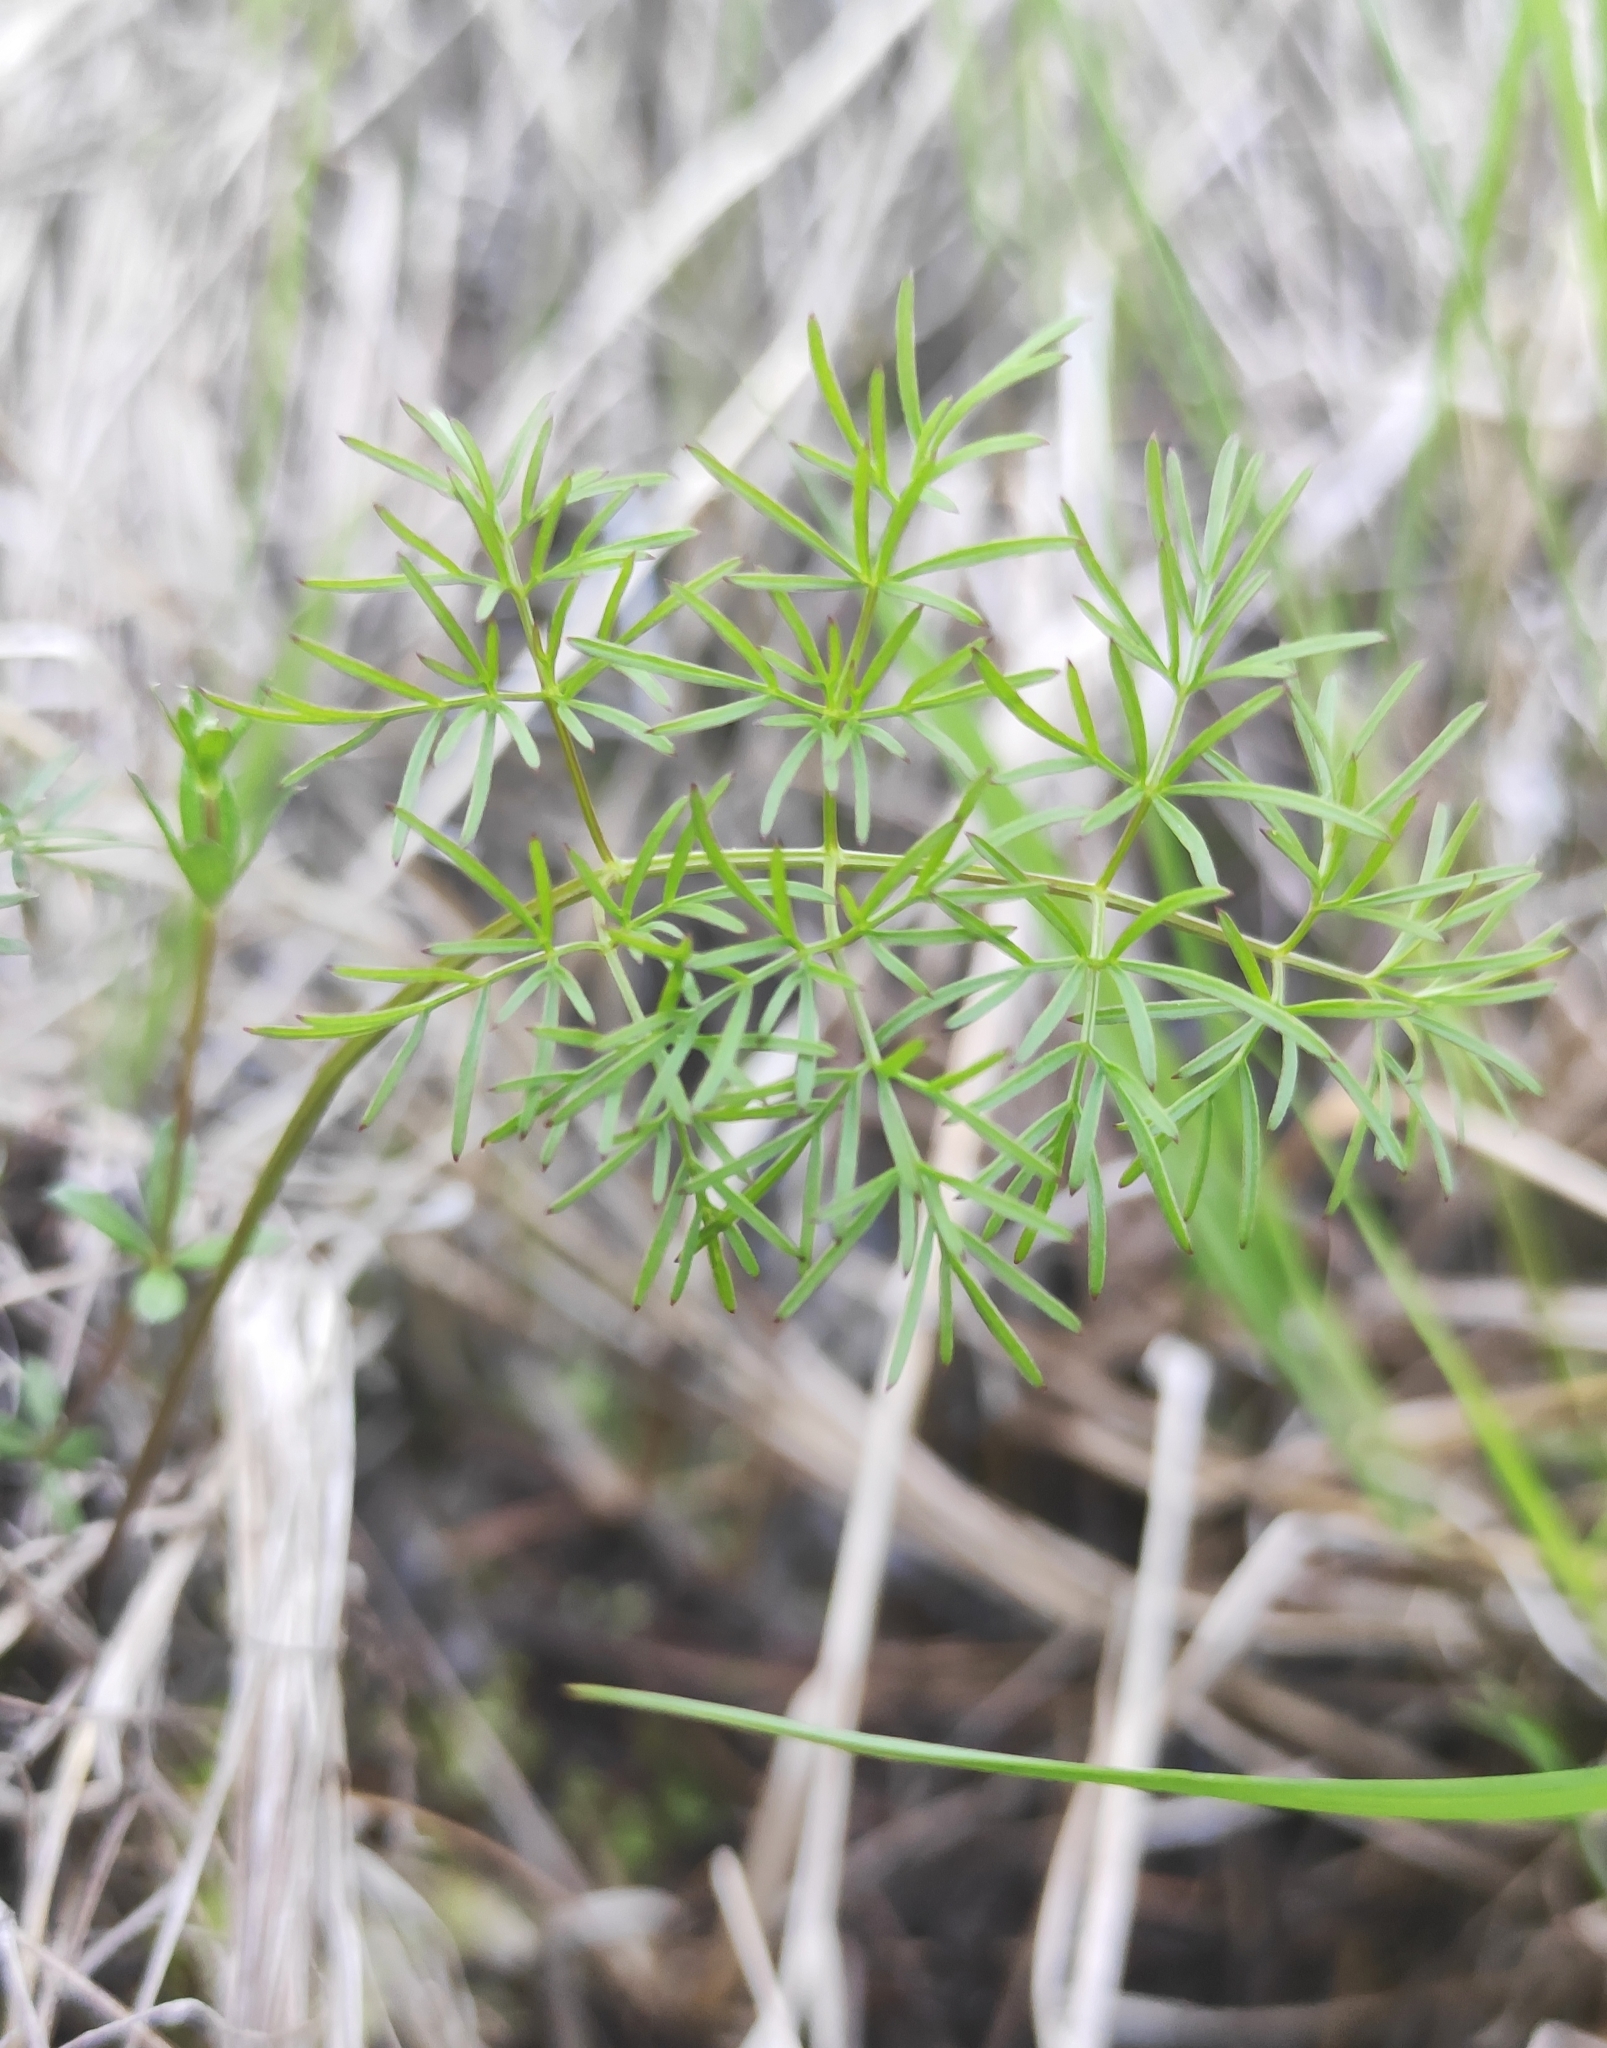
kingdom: Plantae
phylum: Tracheophyta
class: Magnoliopsida
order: Apiales
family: Apiaceae
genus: Ostericum
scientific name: Ostericum tenuifolium
